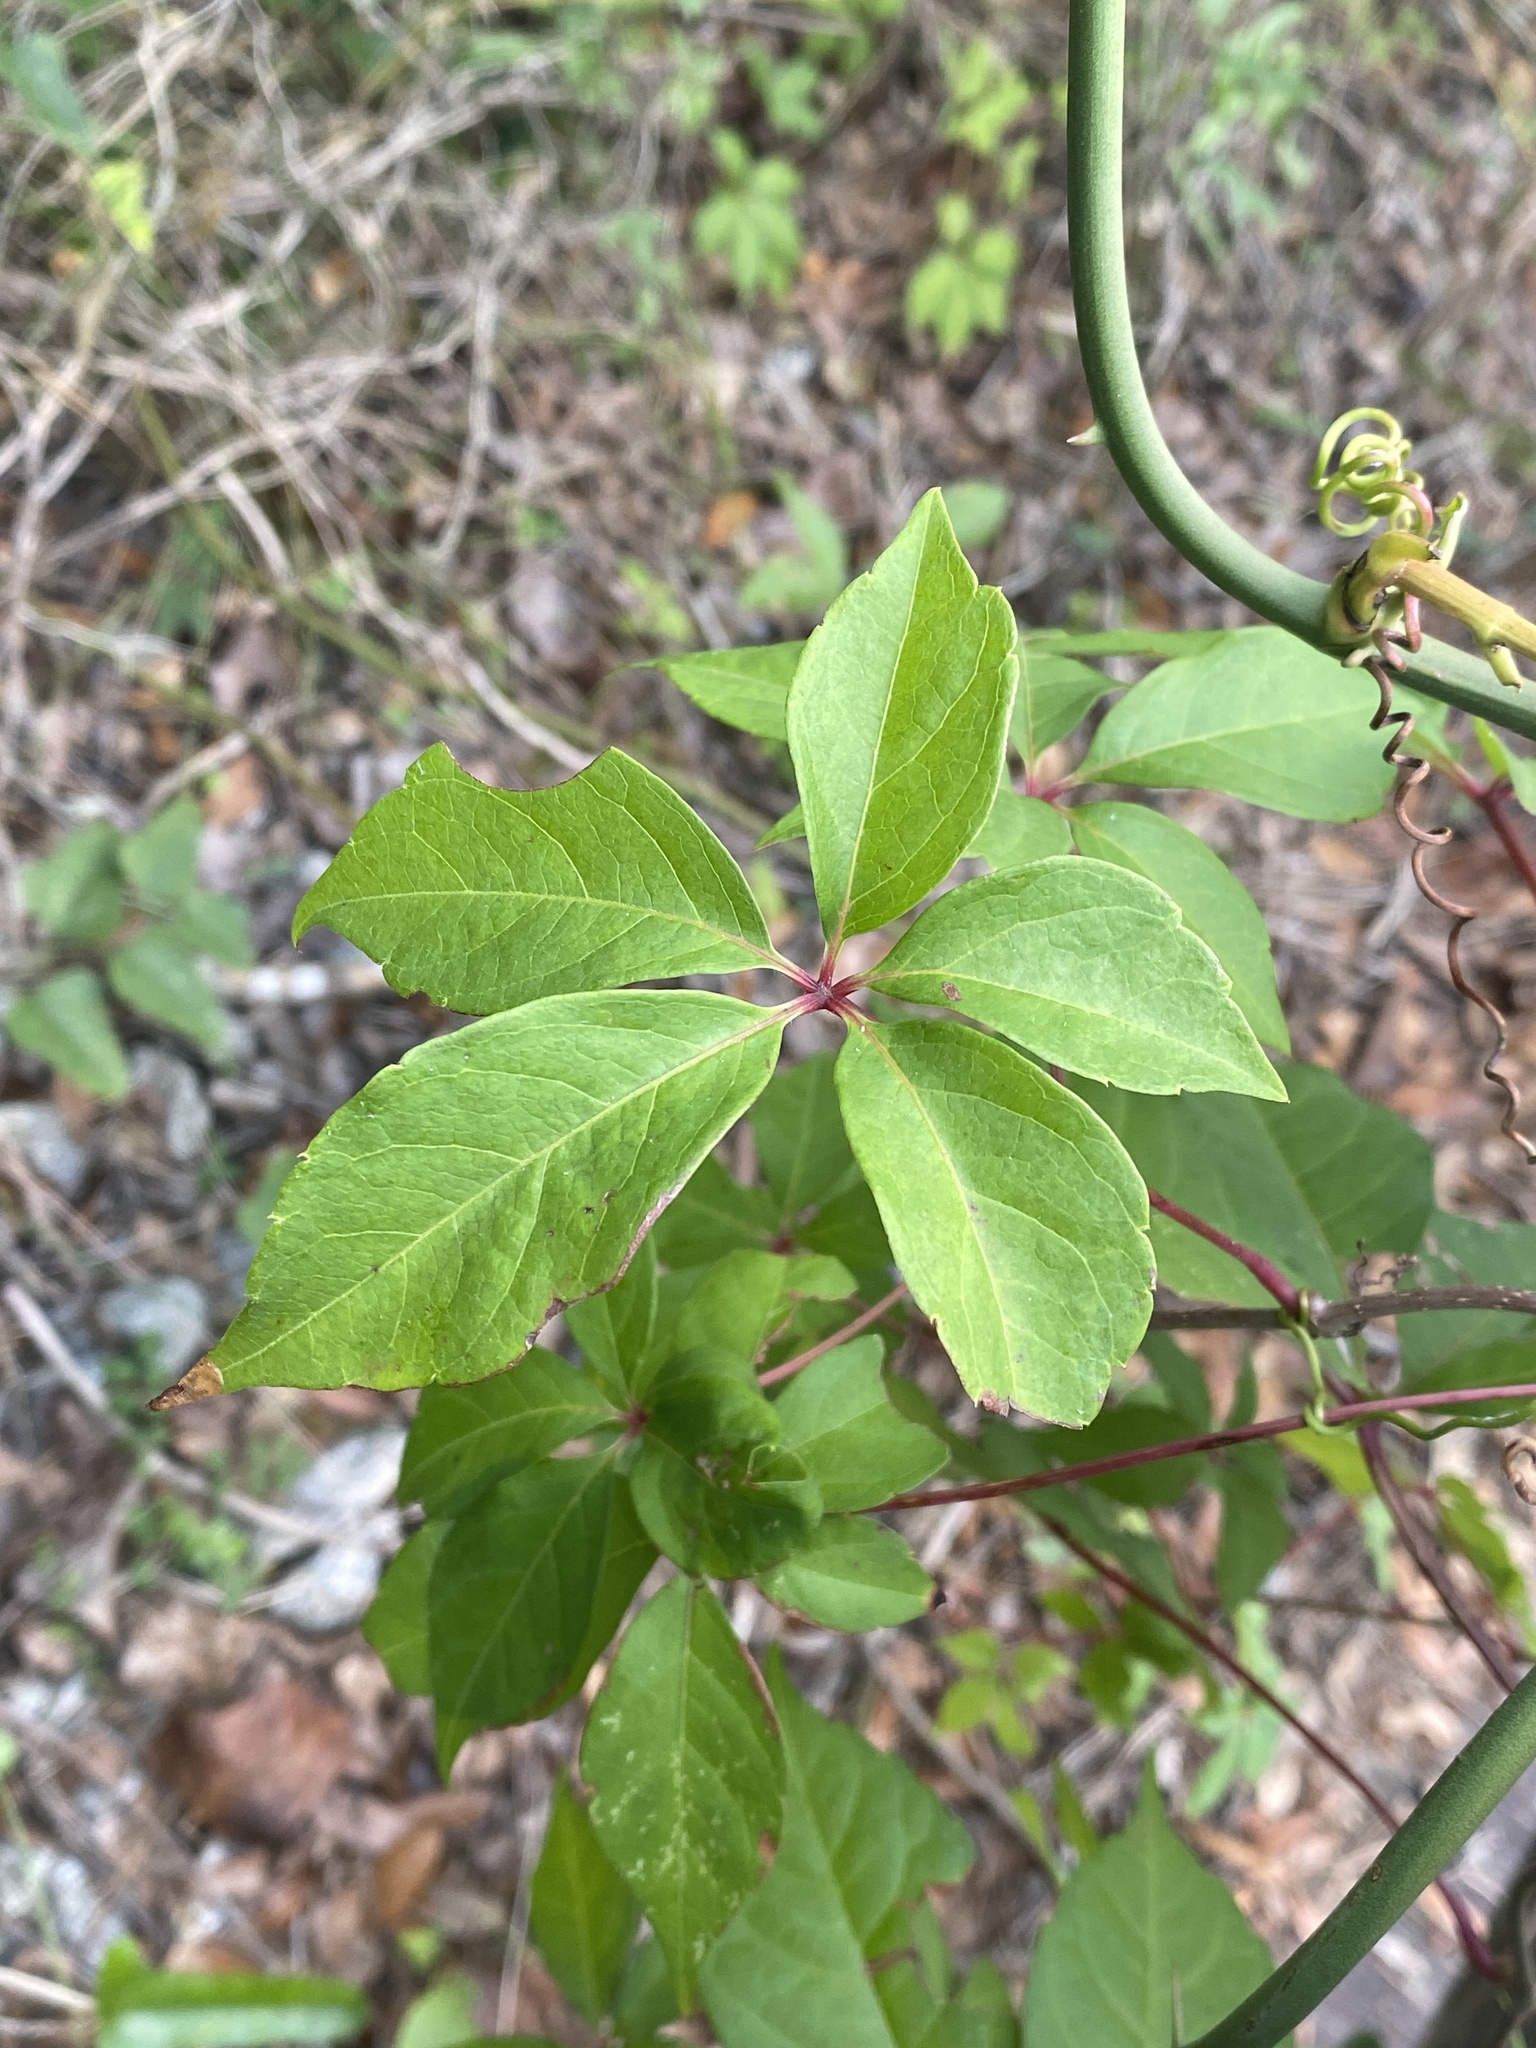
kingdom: Plantae
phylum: Tracheophyta
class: Magnoliopsida
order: Vitales
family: Vitaceae
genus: Parthenocissus
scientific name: Parthenocissus quinquefolia
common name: Virginia-creeper
